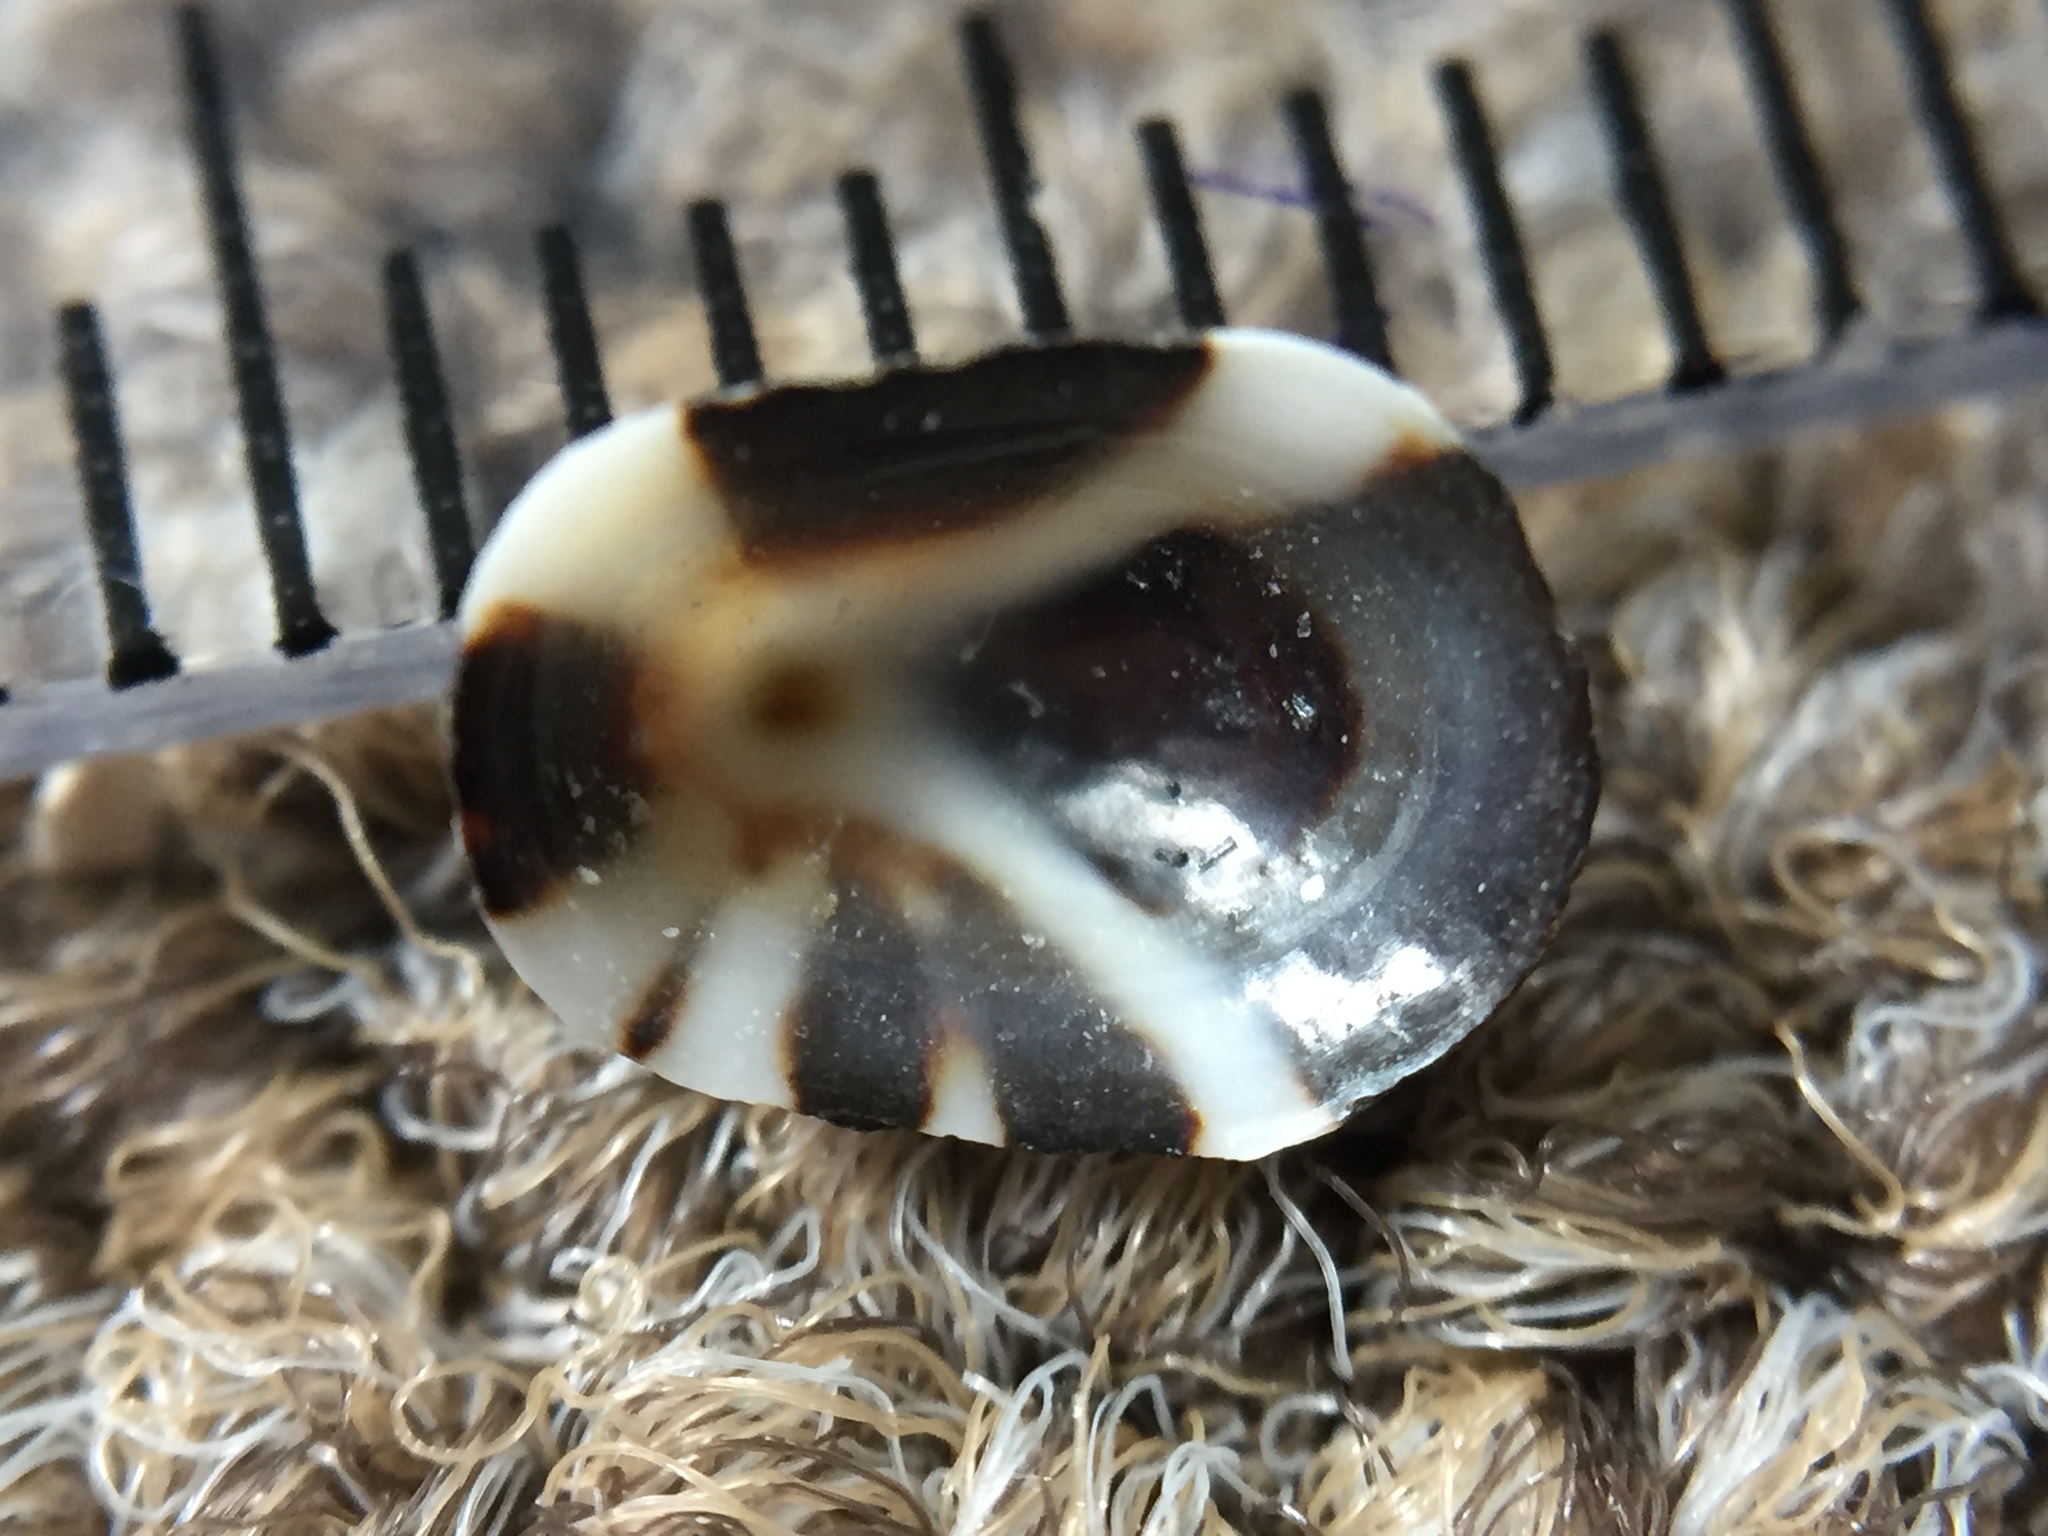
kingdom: Animalia
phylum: Mollusca
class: Gastropoda
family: Lottiidae
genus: Notoacmea
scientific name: Notoacmea parviconoidea
